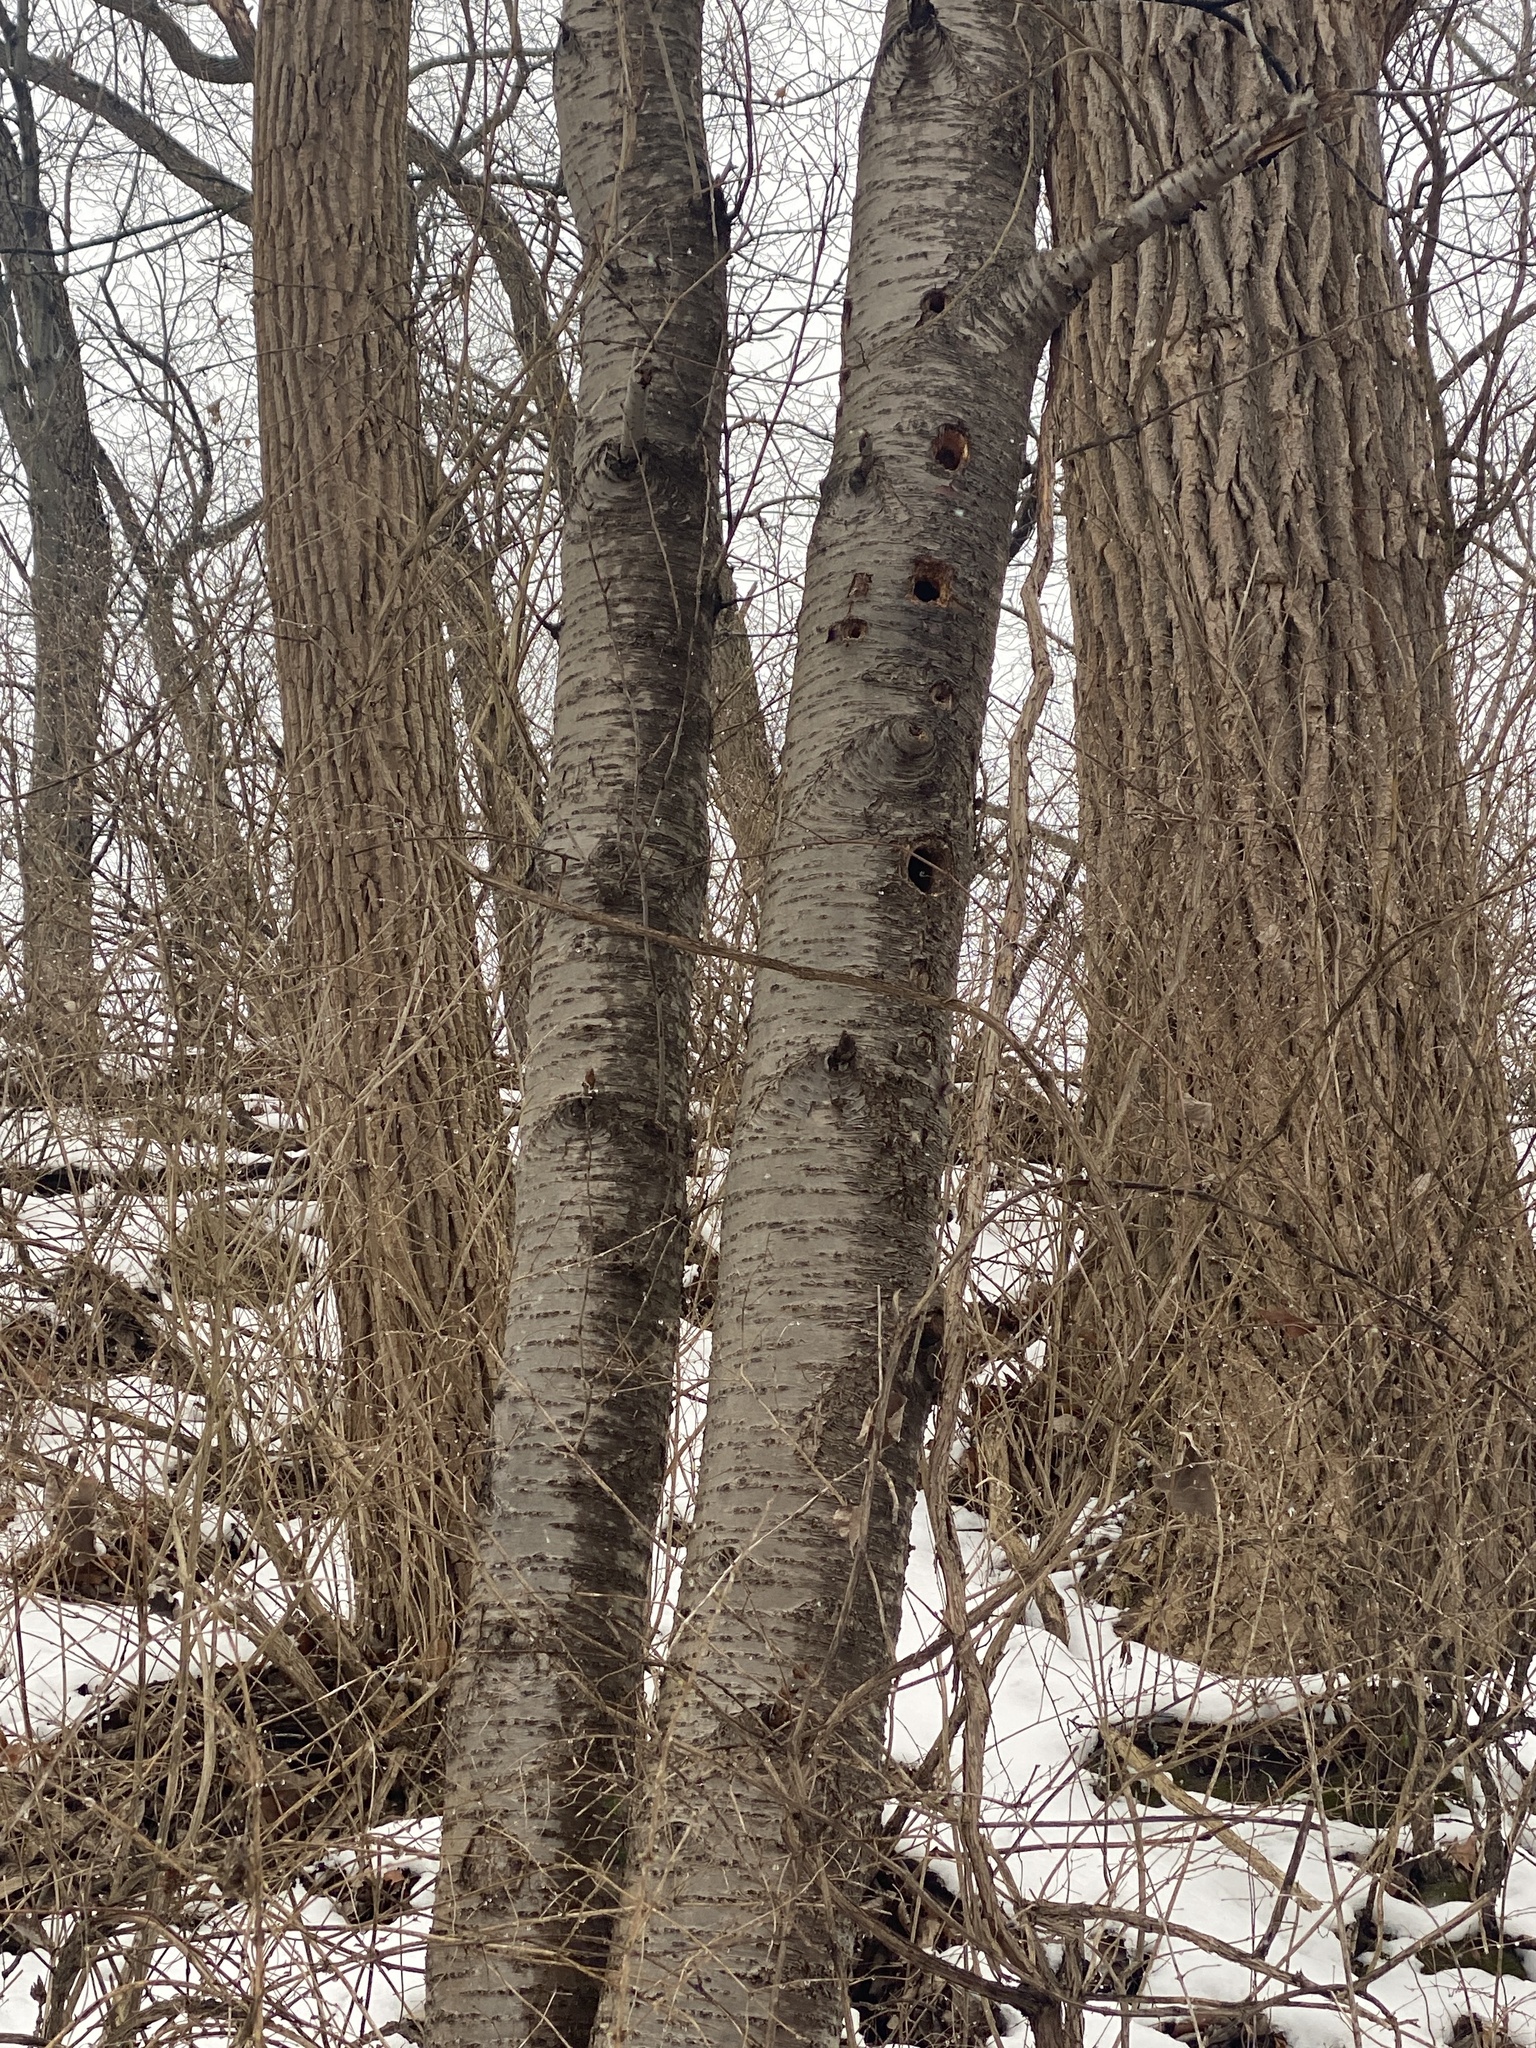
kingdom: Animalia
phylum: Chordata
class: Aves
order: Piciformes
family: Picidae
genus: Dryocopus
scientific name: Dryocopus pileatus
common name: Pileated woodpecker
